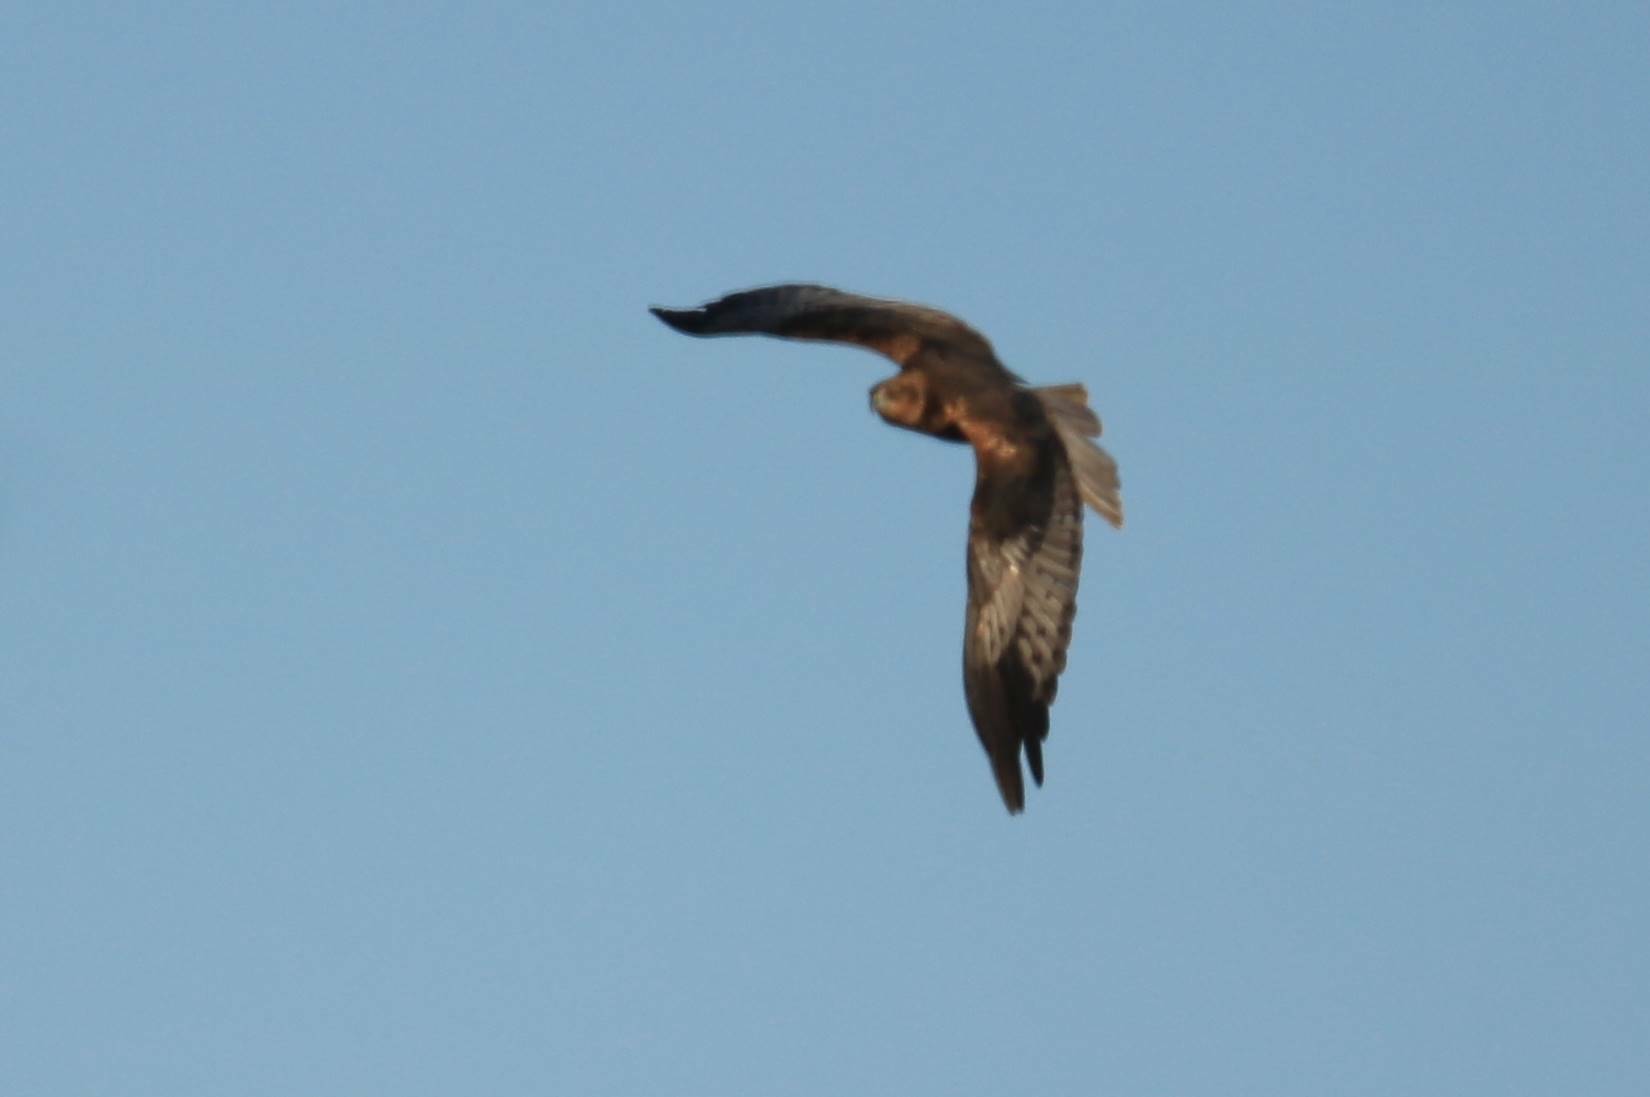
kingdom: Animalia
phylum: Chordata
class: Aves
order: Accipitriformes
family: Accipitridae
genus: Circus
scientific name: Circus aeruginosus
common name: Western marsh harrier
